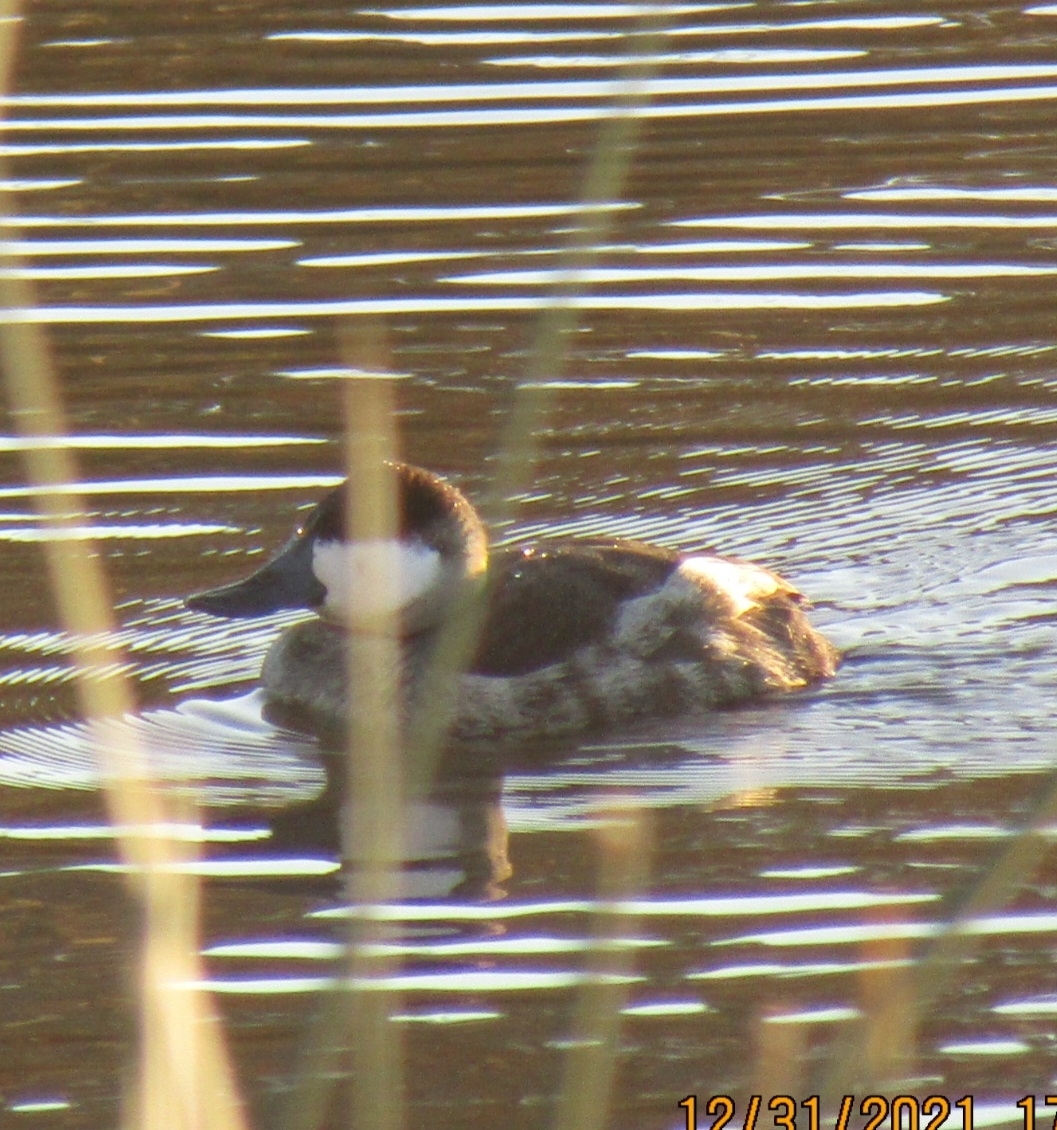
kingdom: Animalia
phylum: Chordata
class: Aves
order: Anseriformes
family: Anatidae
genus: Oxyura
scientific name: Oxyura jamaicensis
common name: Ruddy duck
